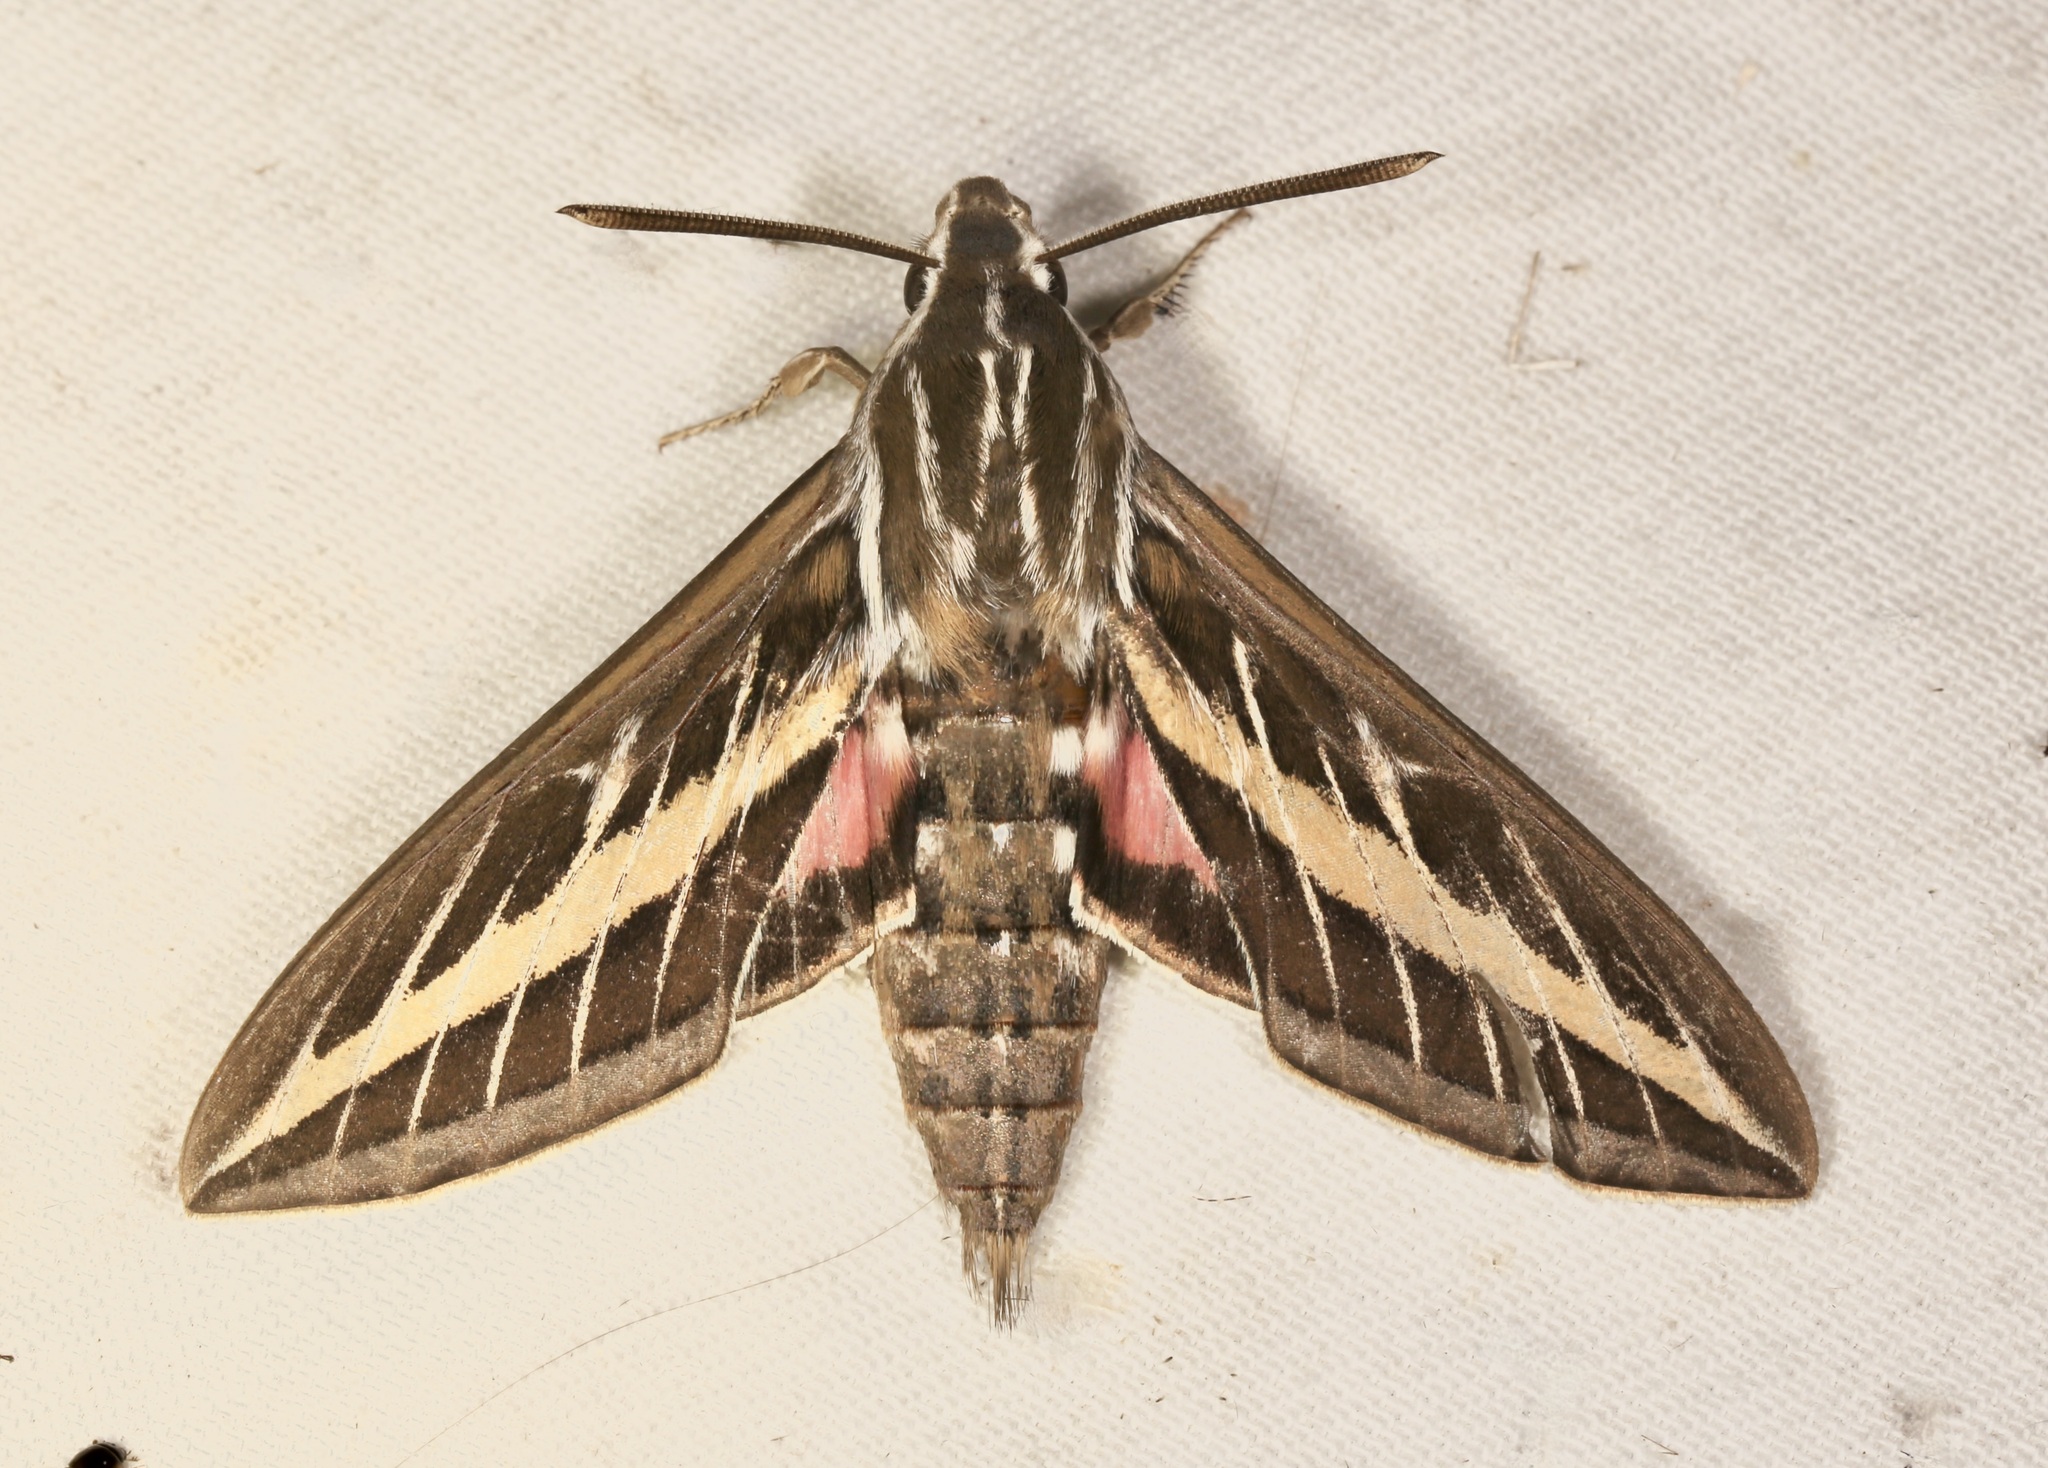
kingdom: Animalia
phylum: Arthropoda
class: Insecta
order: Lepidoptera
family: Sphingidae
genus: Hyles
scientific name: Hyles lineata
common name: White-lined sphinx
